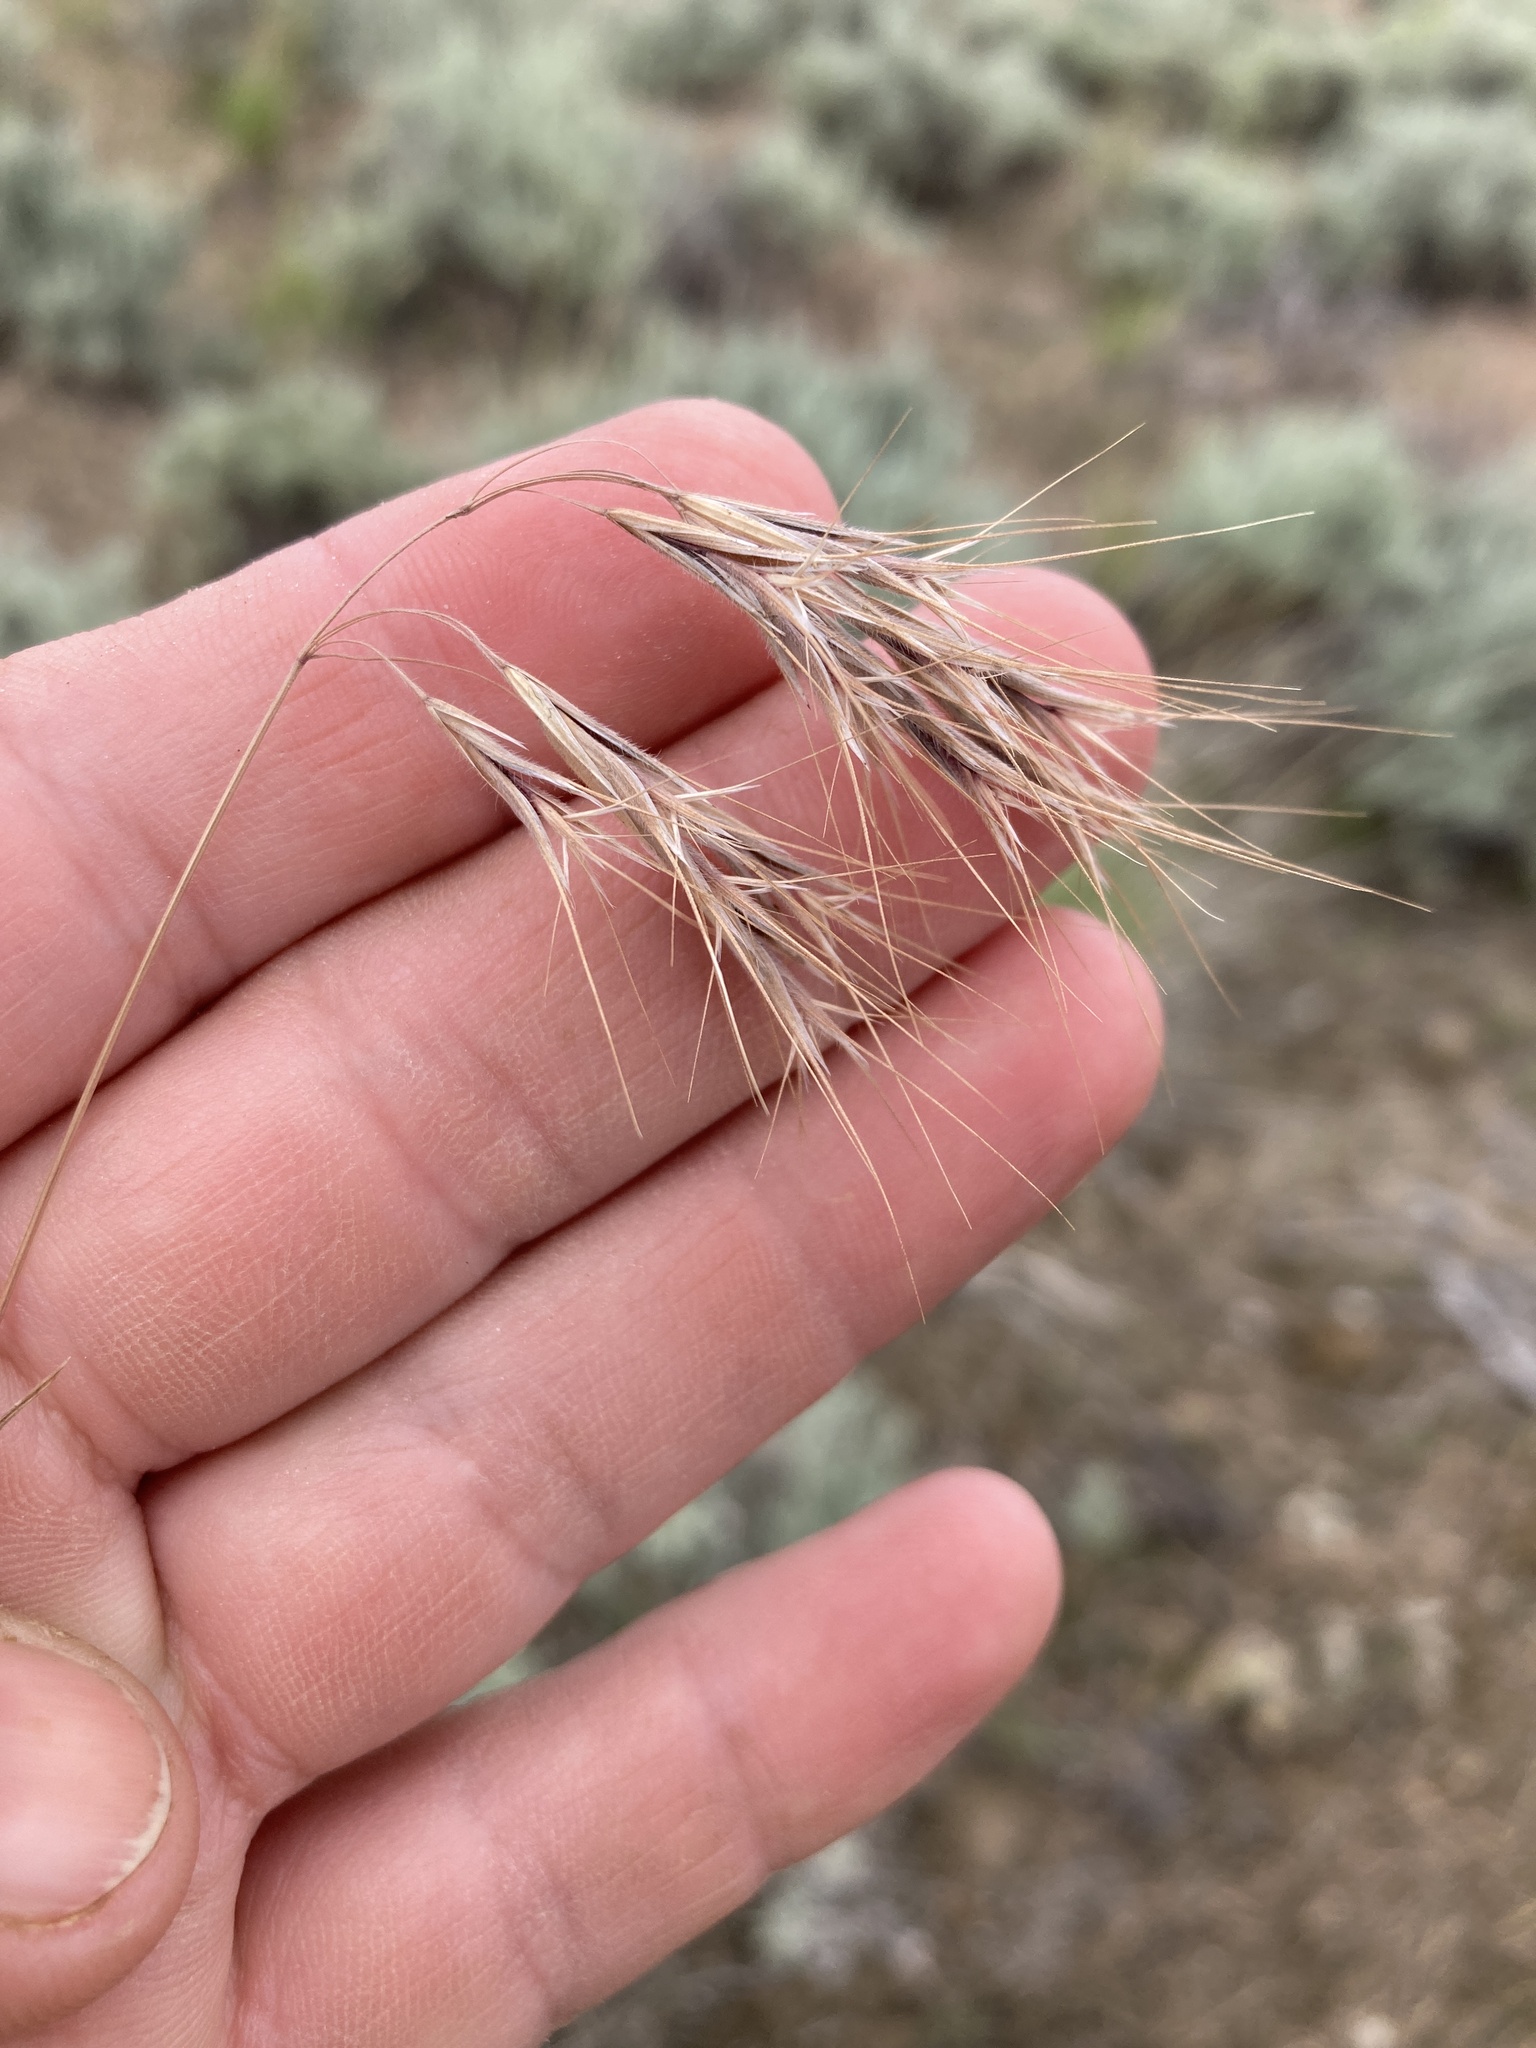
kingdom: Plantae
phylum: Tracheophyta
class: Liliopsida
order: Poales
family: Poaceae
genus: Bromus
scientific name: Bromus tectorum
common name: Cheatgrass
